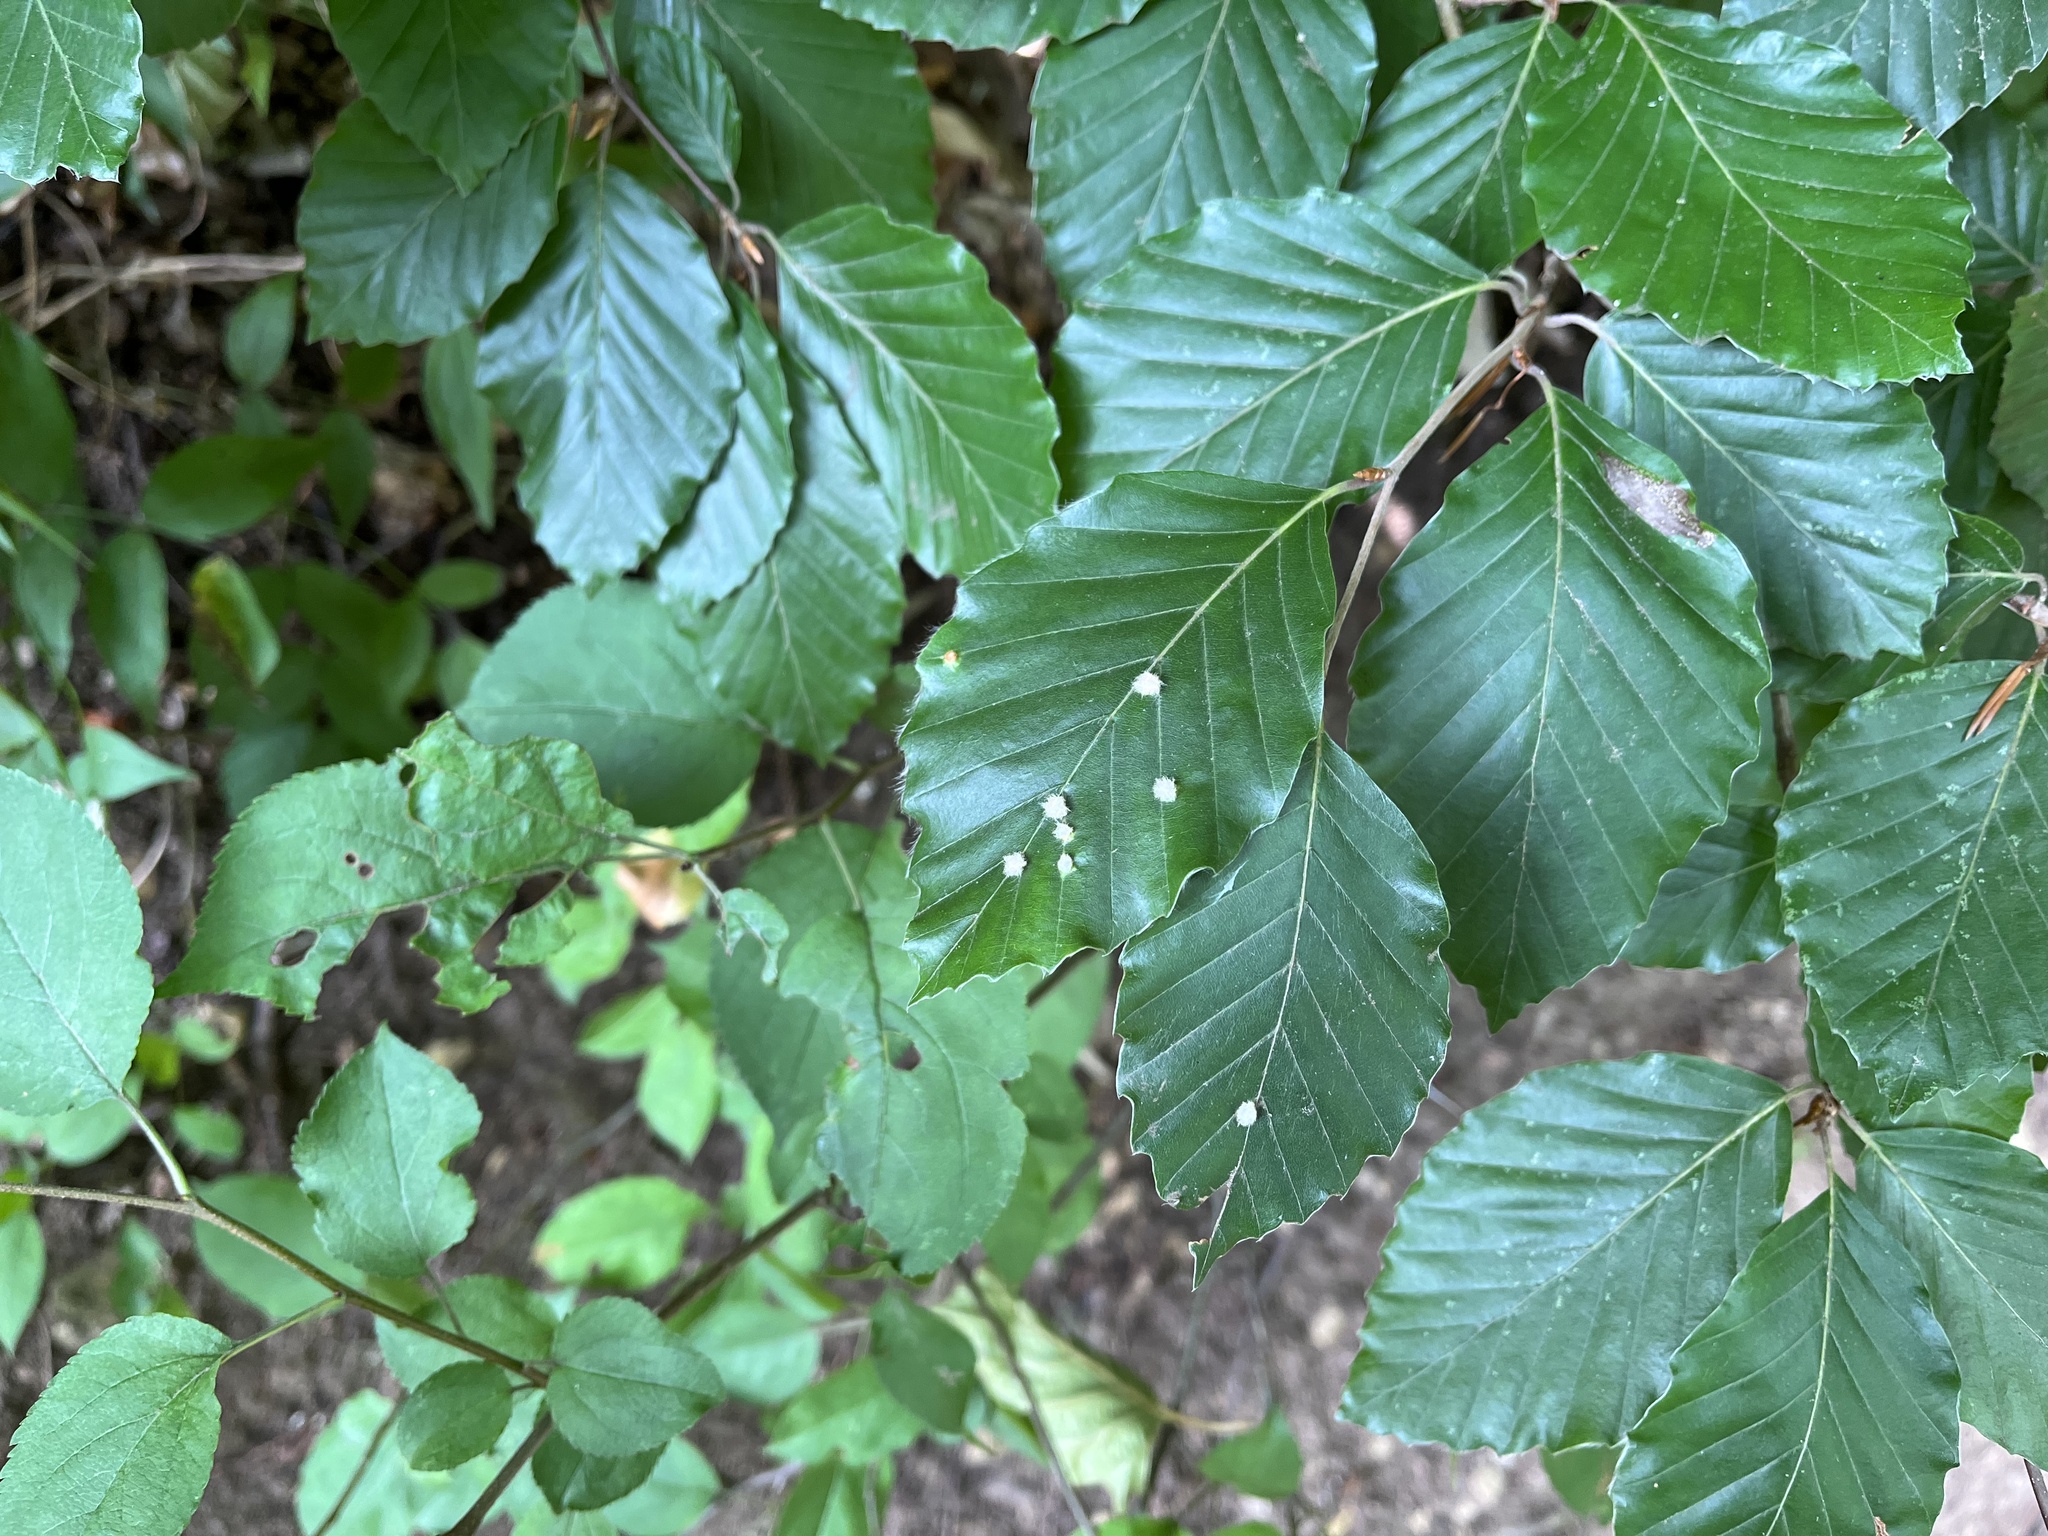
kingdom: Animalia
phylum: Arthropoda
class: Insecta
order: Diptera
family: Cecidomyiidae
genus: Hartigiola
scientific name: Hartigiola annulipes
